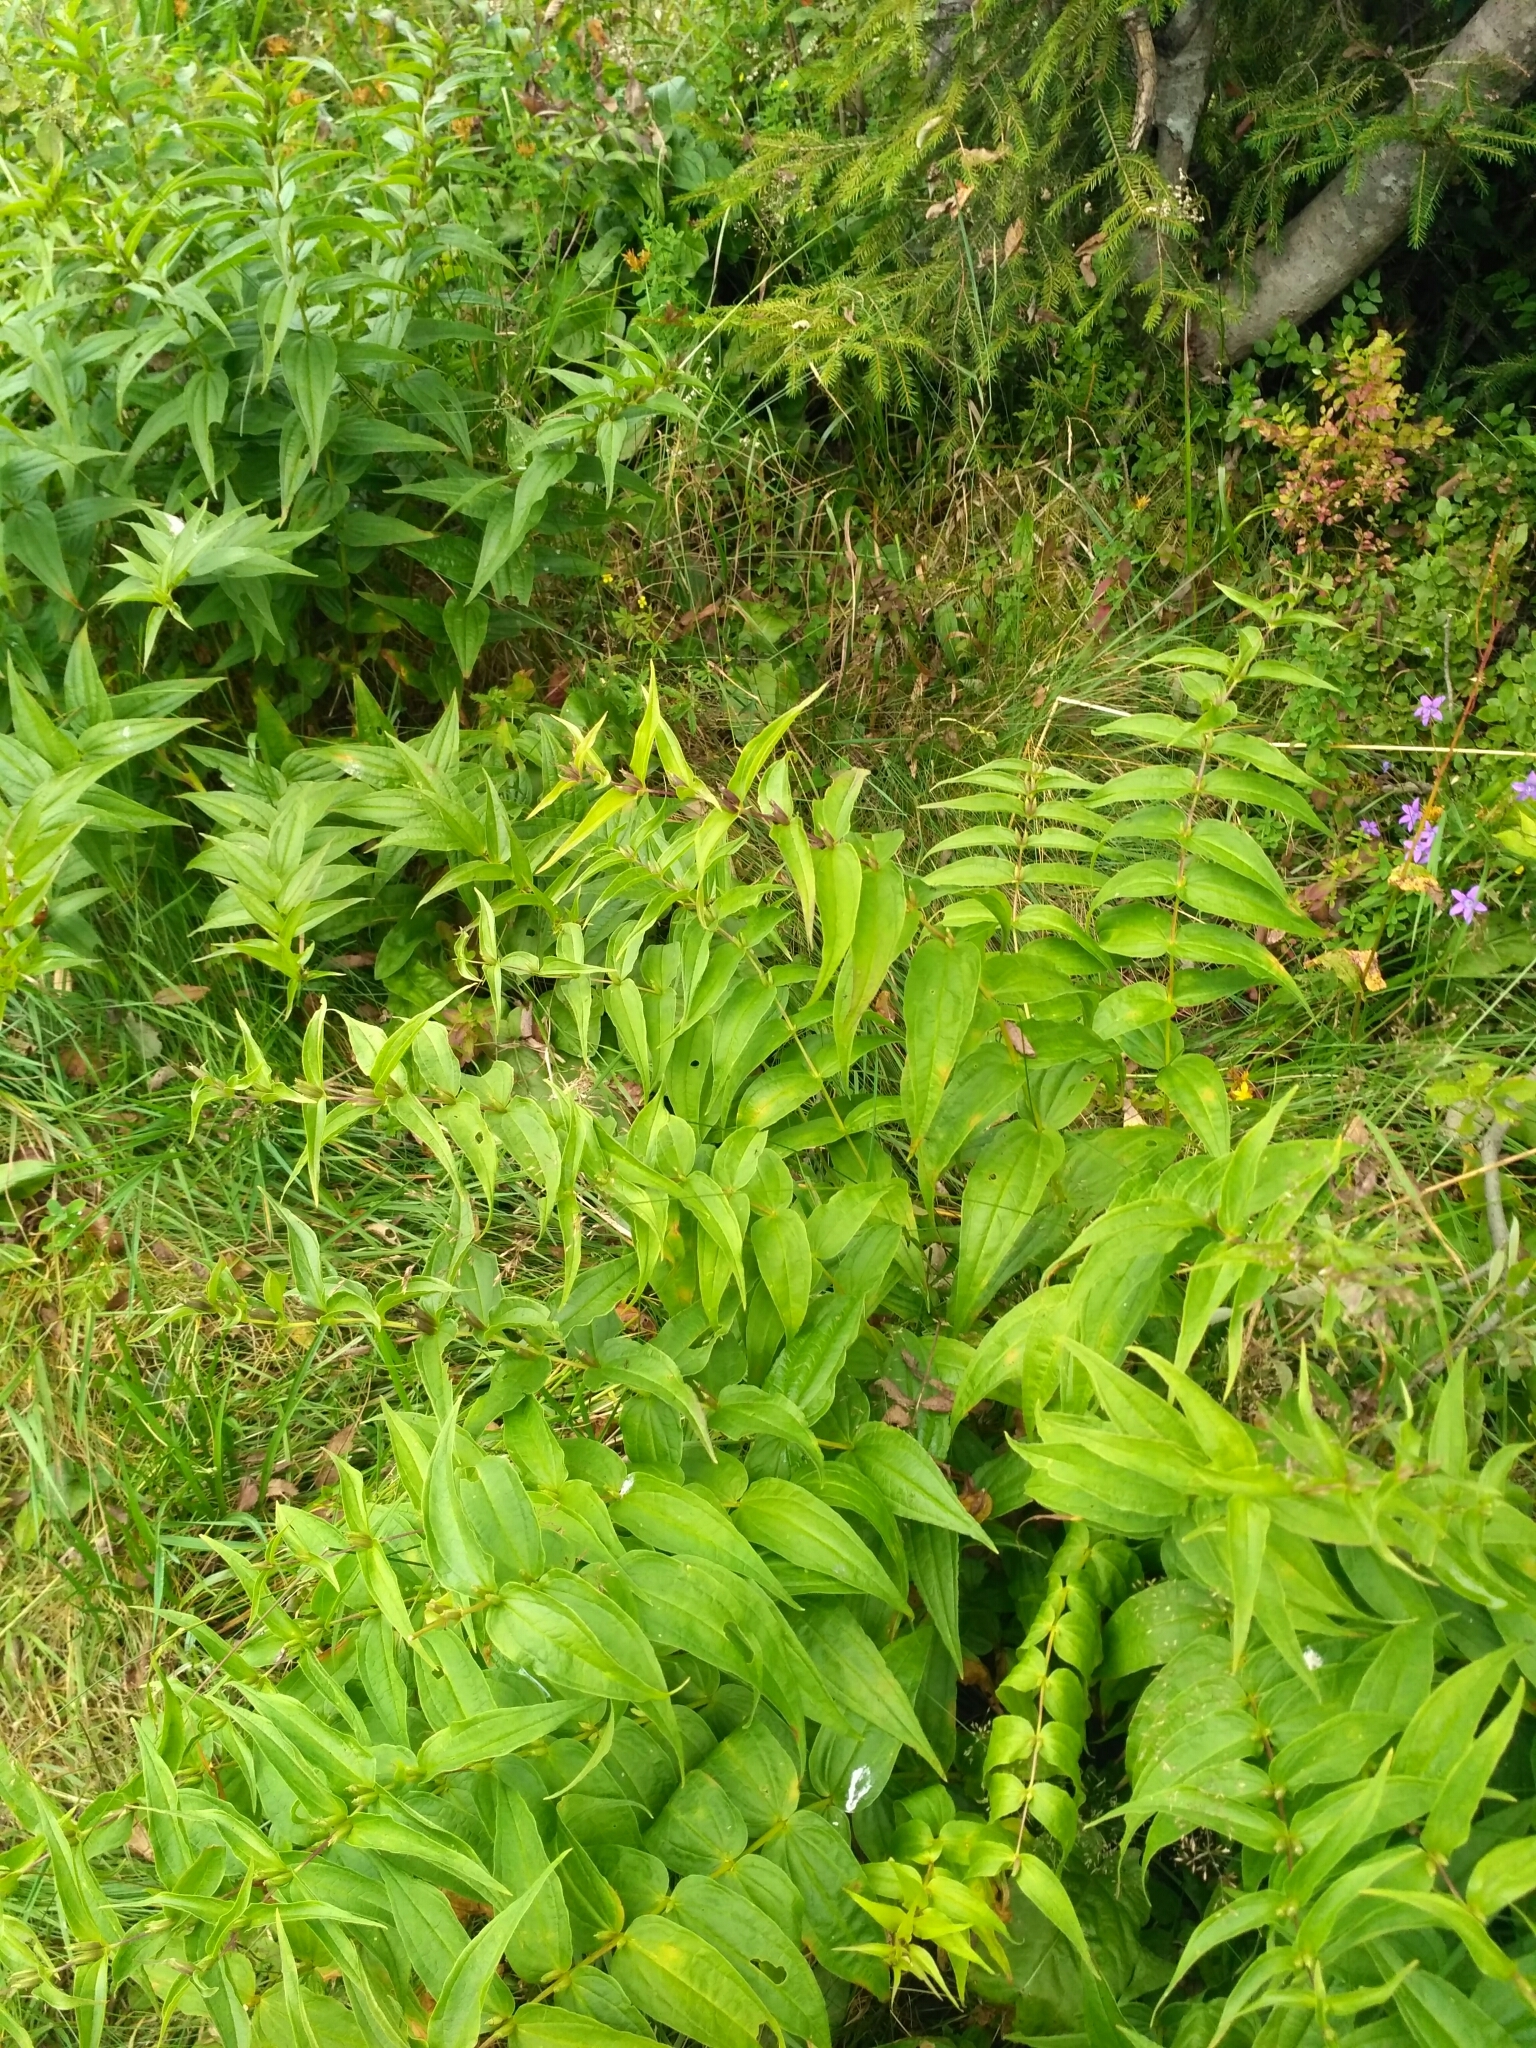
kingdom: Plantae
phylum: Tracheophyta
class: Magnoliopsida
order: Gentianales
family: Gentianaceae
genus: Gentiana
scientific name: Gentiana asclepiadea
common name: Willow gentian
